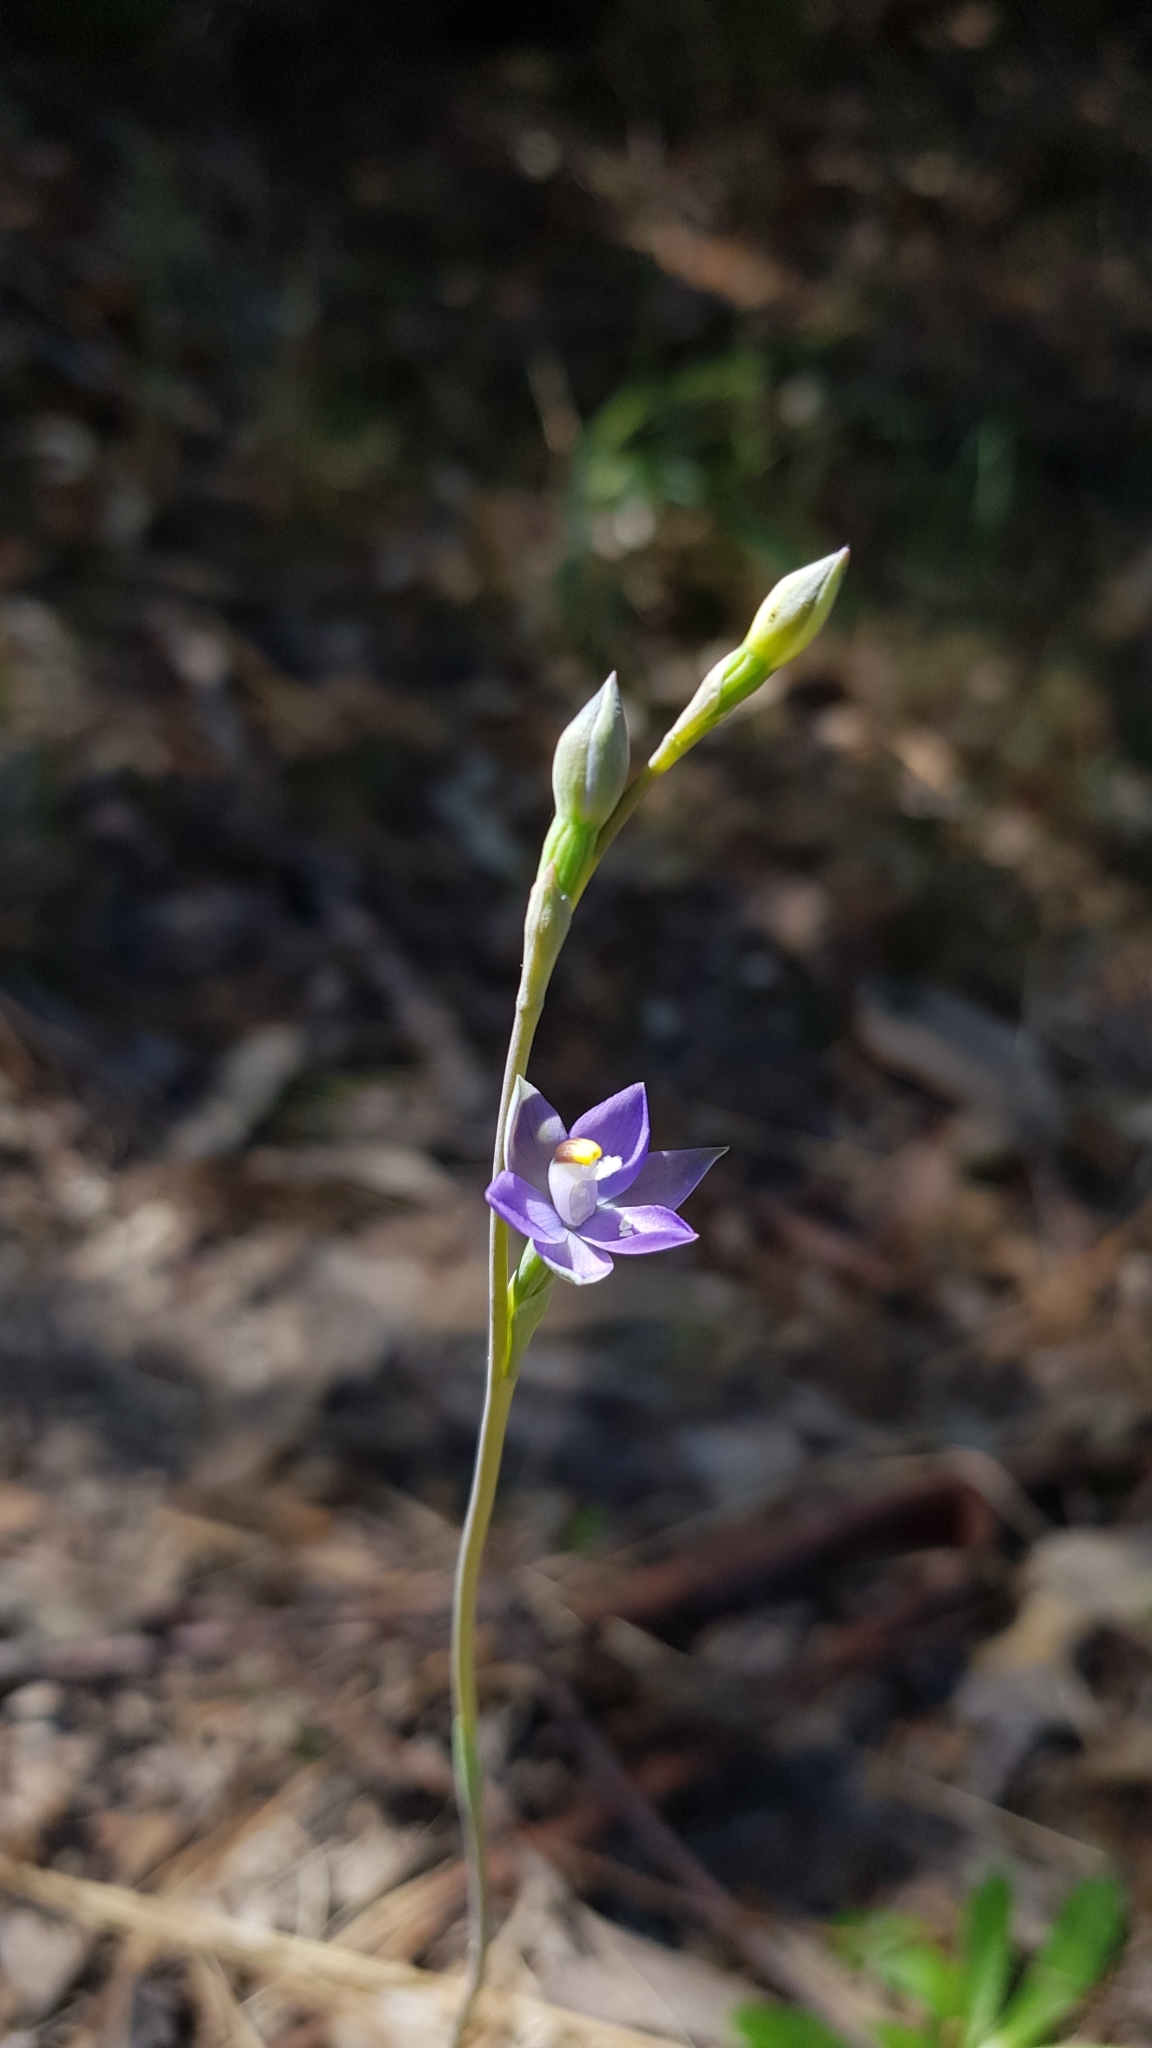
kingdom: Plantae
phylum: Tracheophyta
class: Liliopsida
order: Asparagales
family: Orchidaceae
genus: Thelymitra
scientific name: Thelymitra pauciflora
